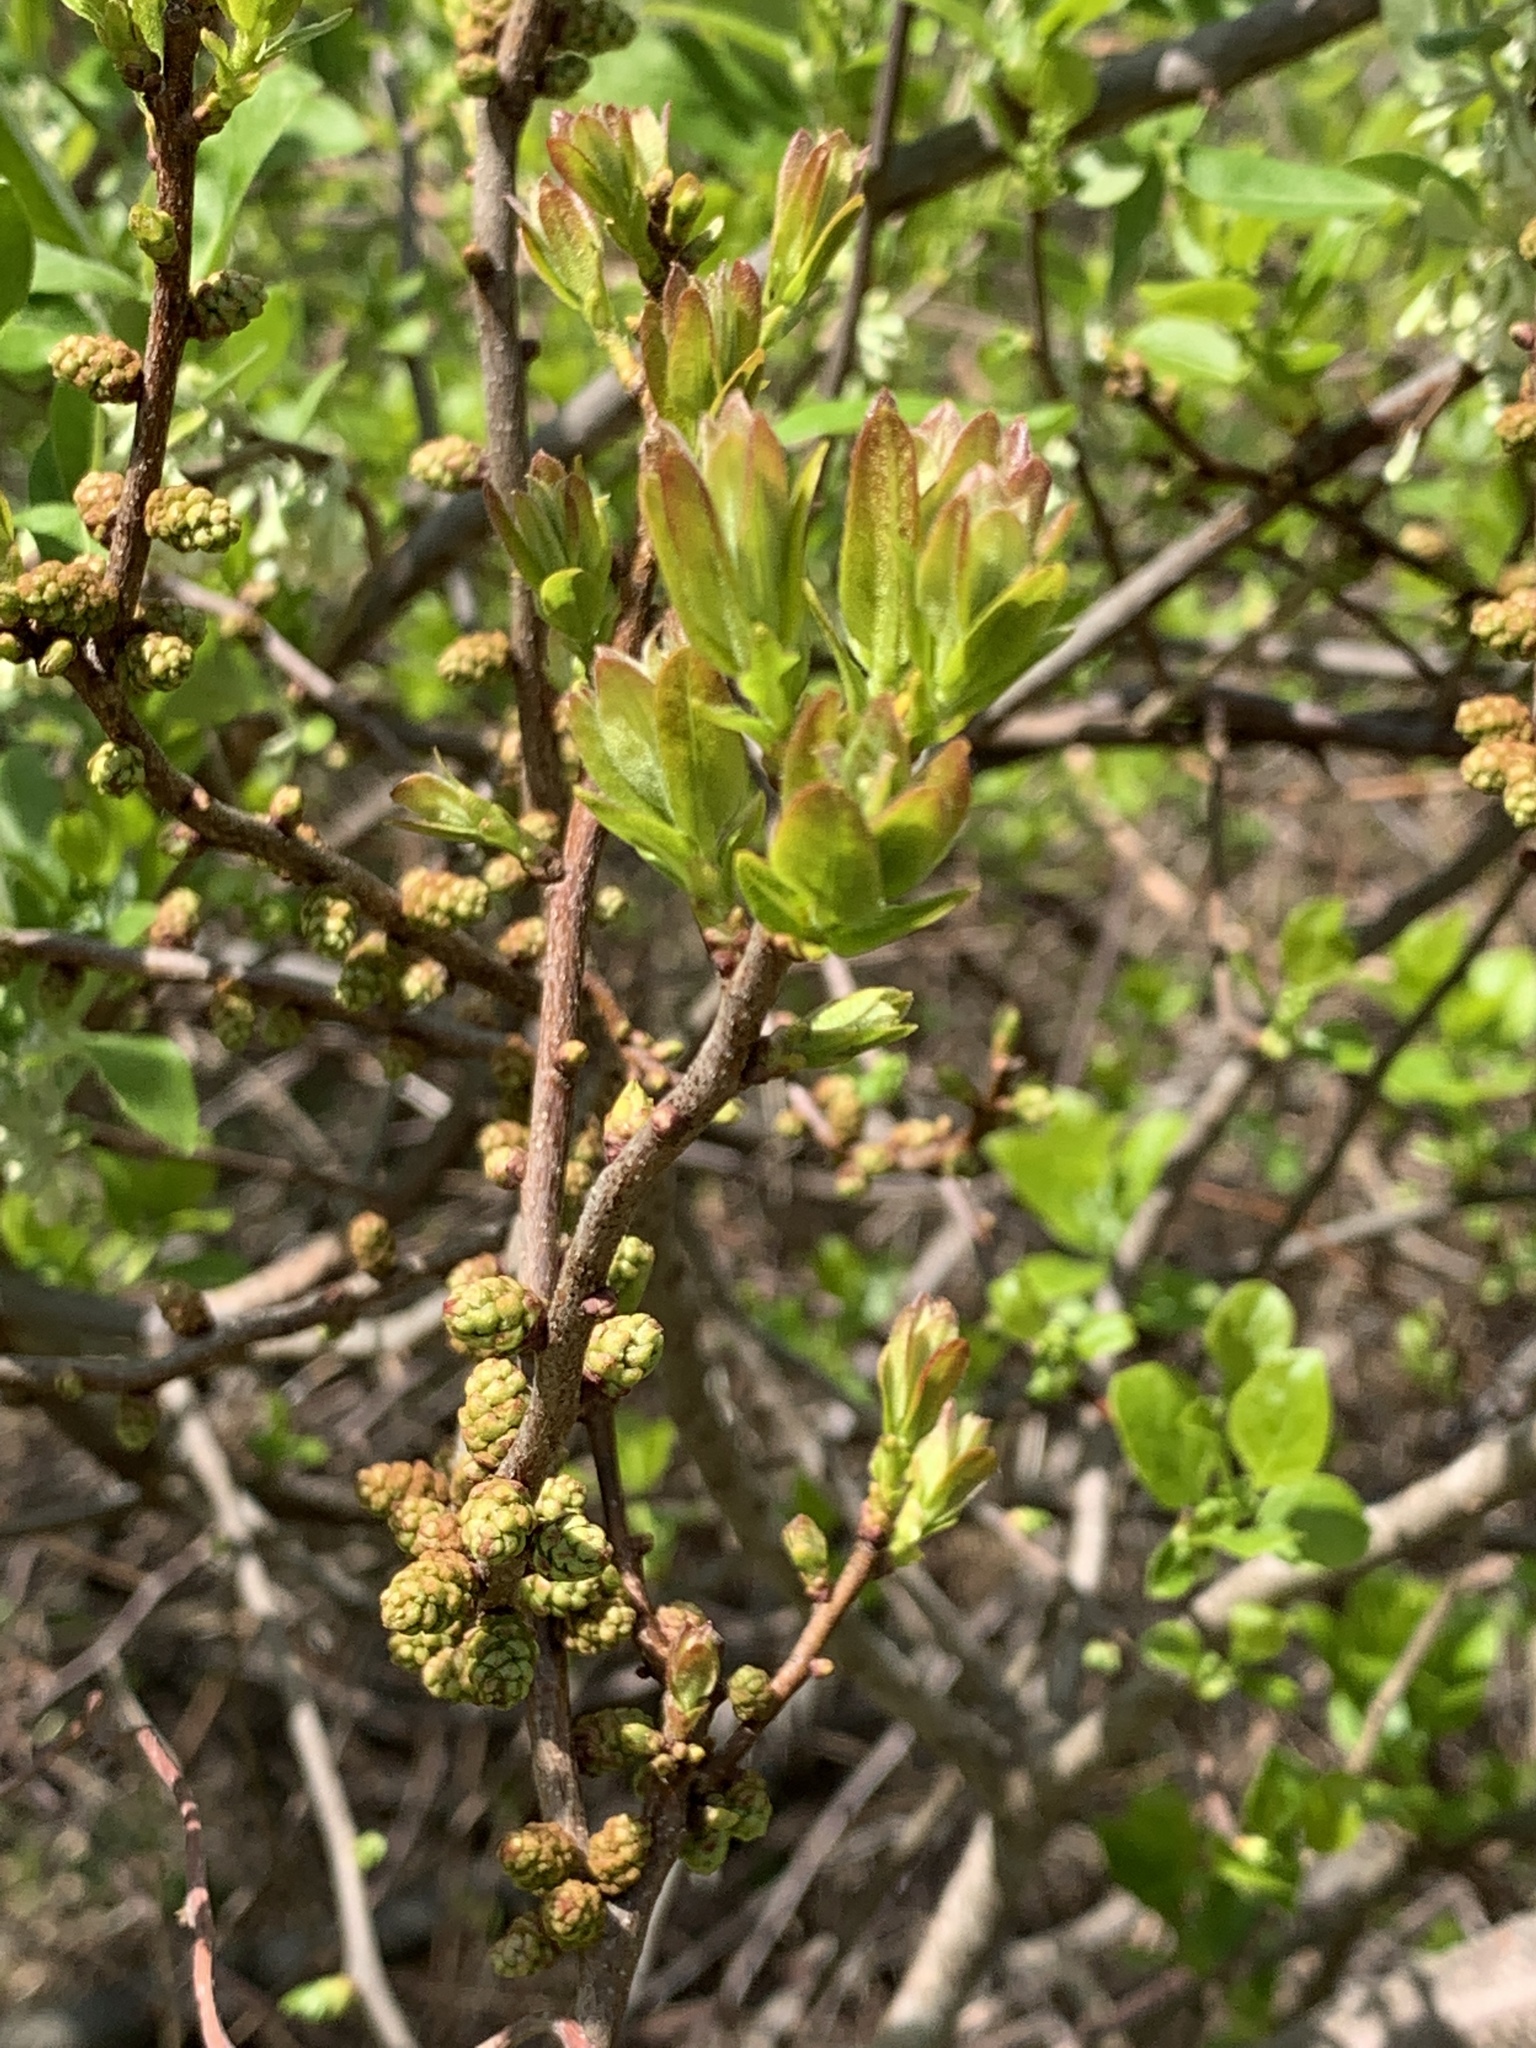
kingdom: Plantae
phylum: Tracheophyta
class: Magnoliopsida
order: Fagales
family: Myricaceae
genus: Morella
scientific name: Morella pensylvanica
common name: Northern bayberry
